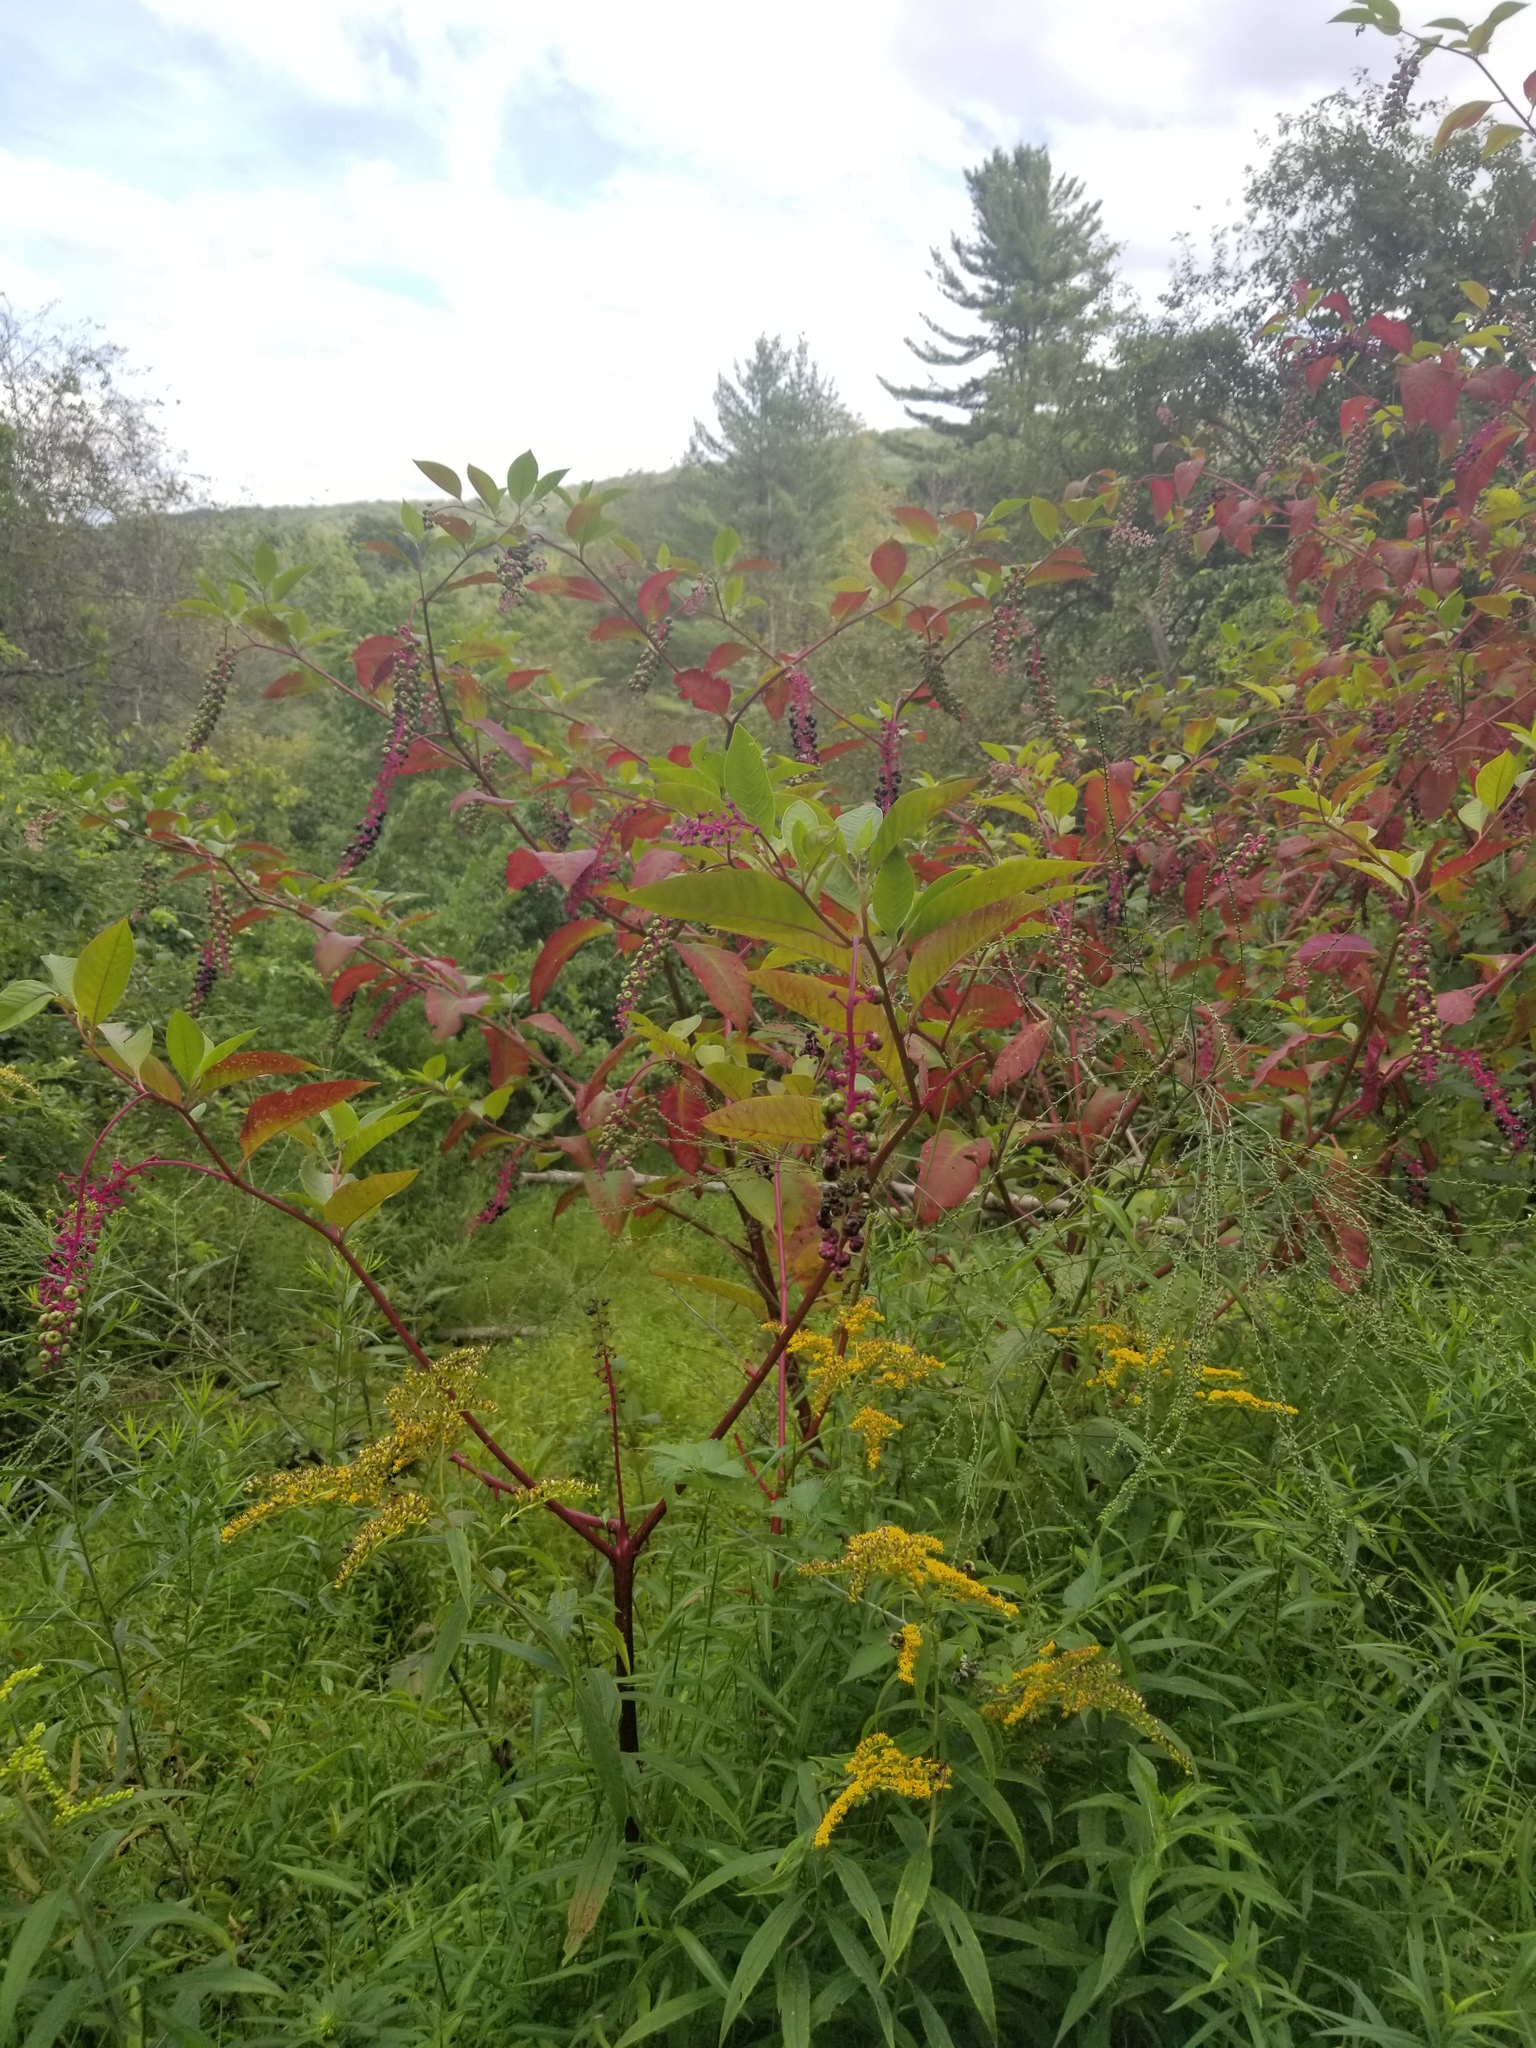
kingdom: Plantae
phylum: Tracheophyta
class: Magnoliopsida
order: Caryophyllales
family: Phytolaccaceae
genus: Phytolacca
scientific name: Phytolacca americana
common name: American pokeweed
